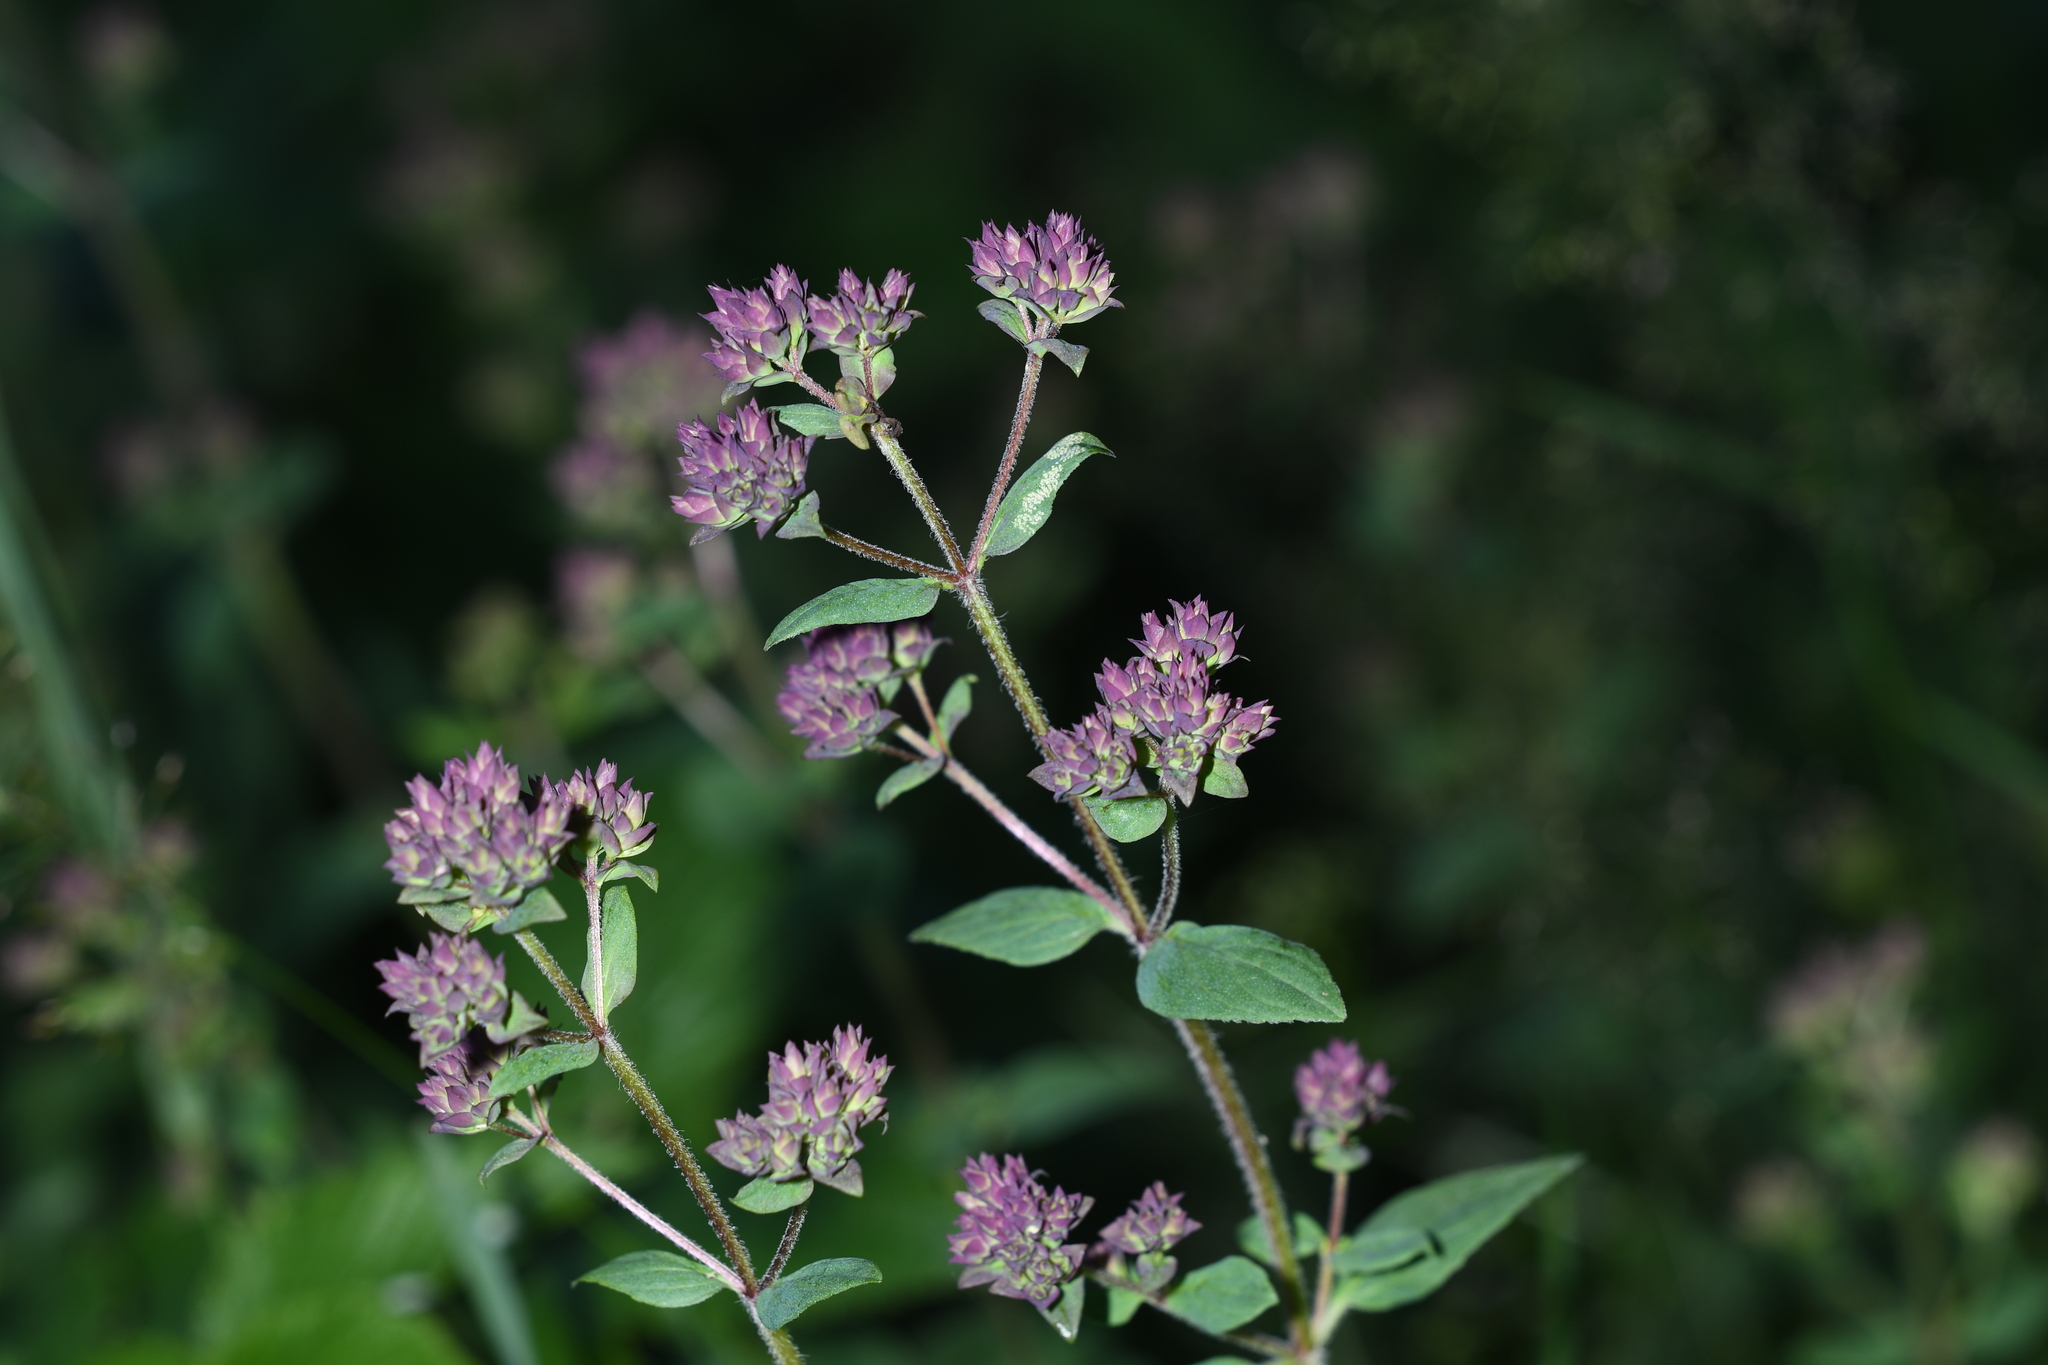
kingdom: Plantae
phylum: Tracheophyta
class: Magnoliopsida
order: Lamiales
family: Lamiaceae
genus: Origanum
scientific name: Origanum vulgare
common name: Wild marjoram
